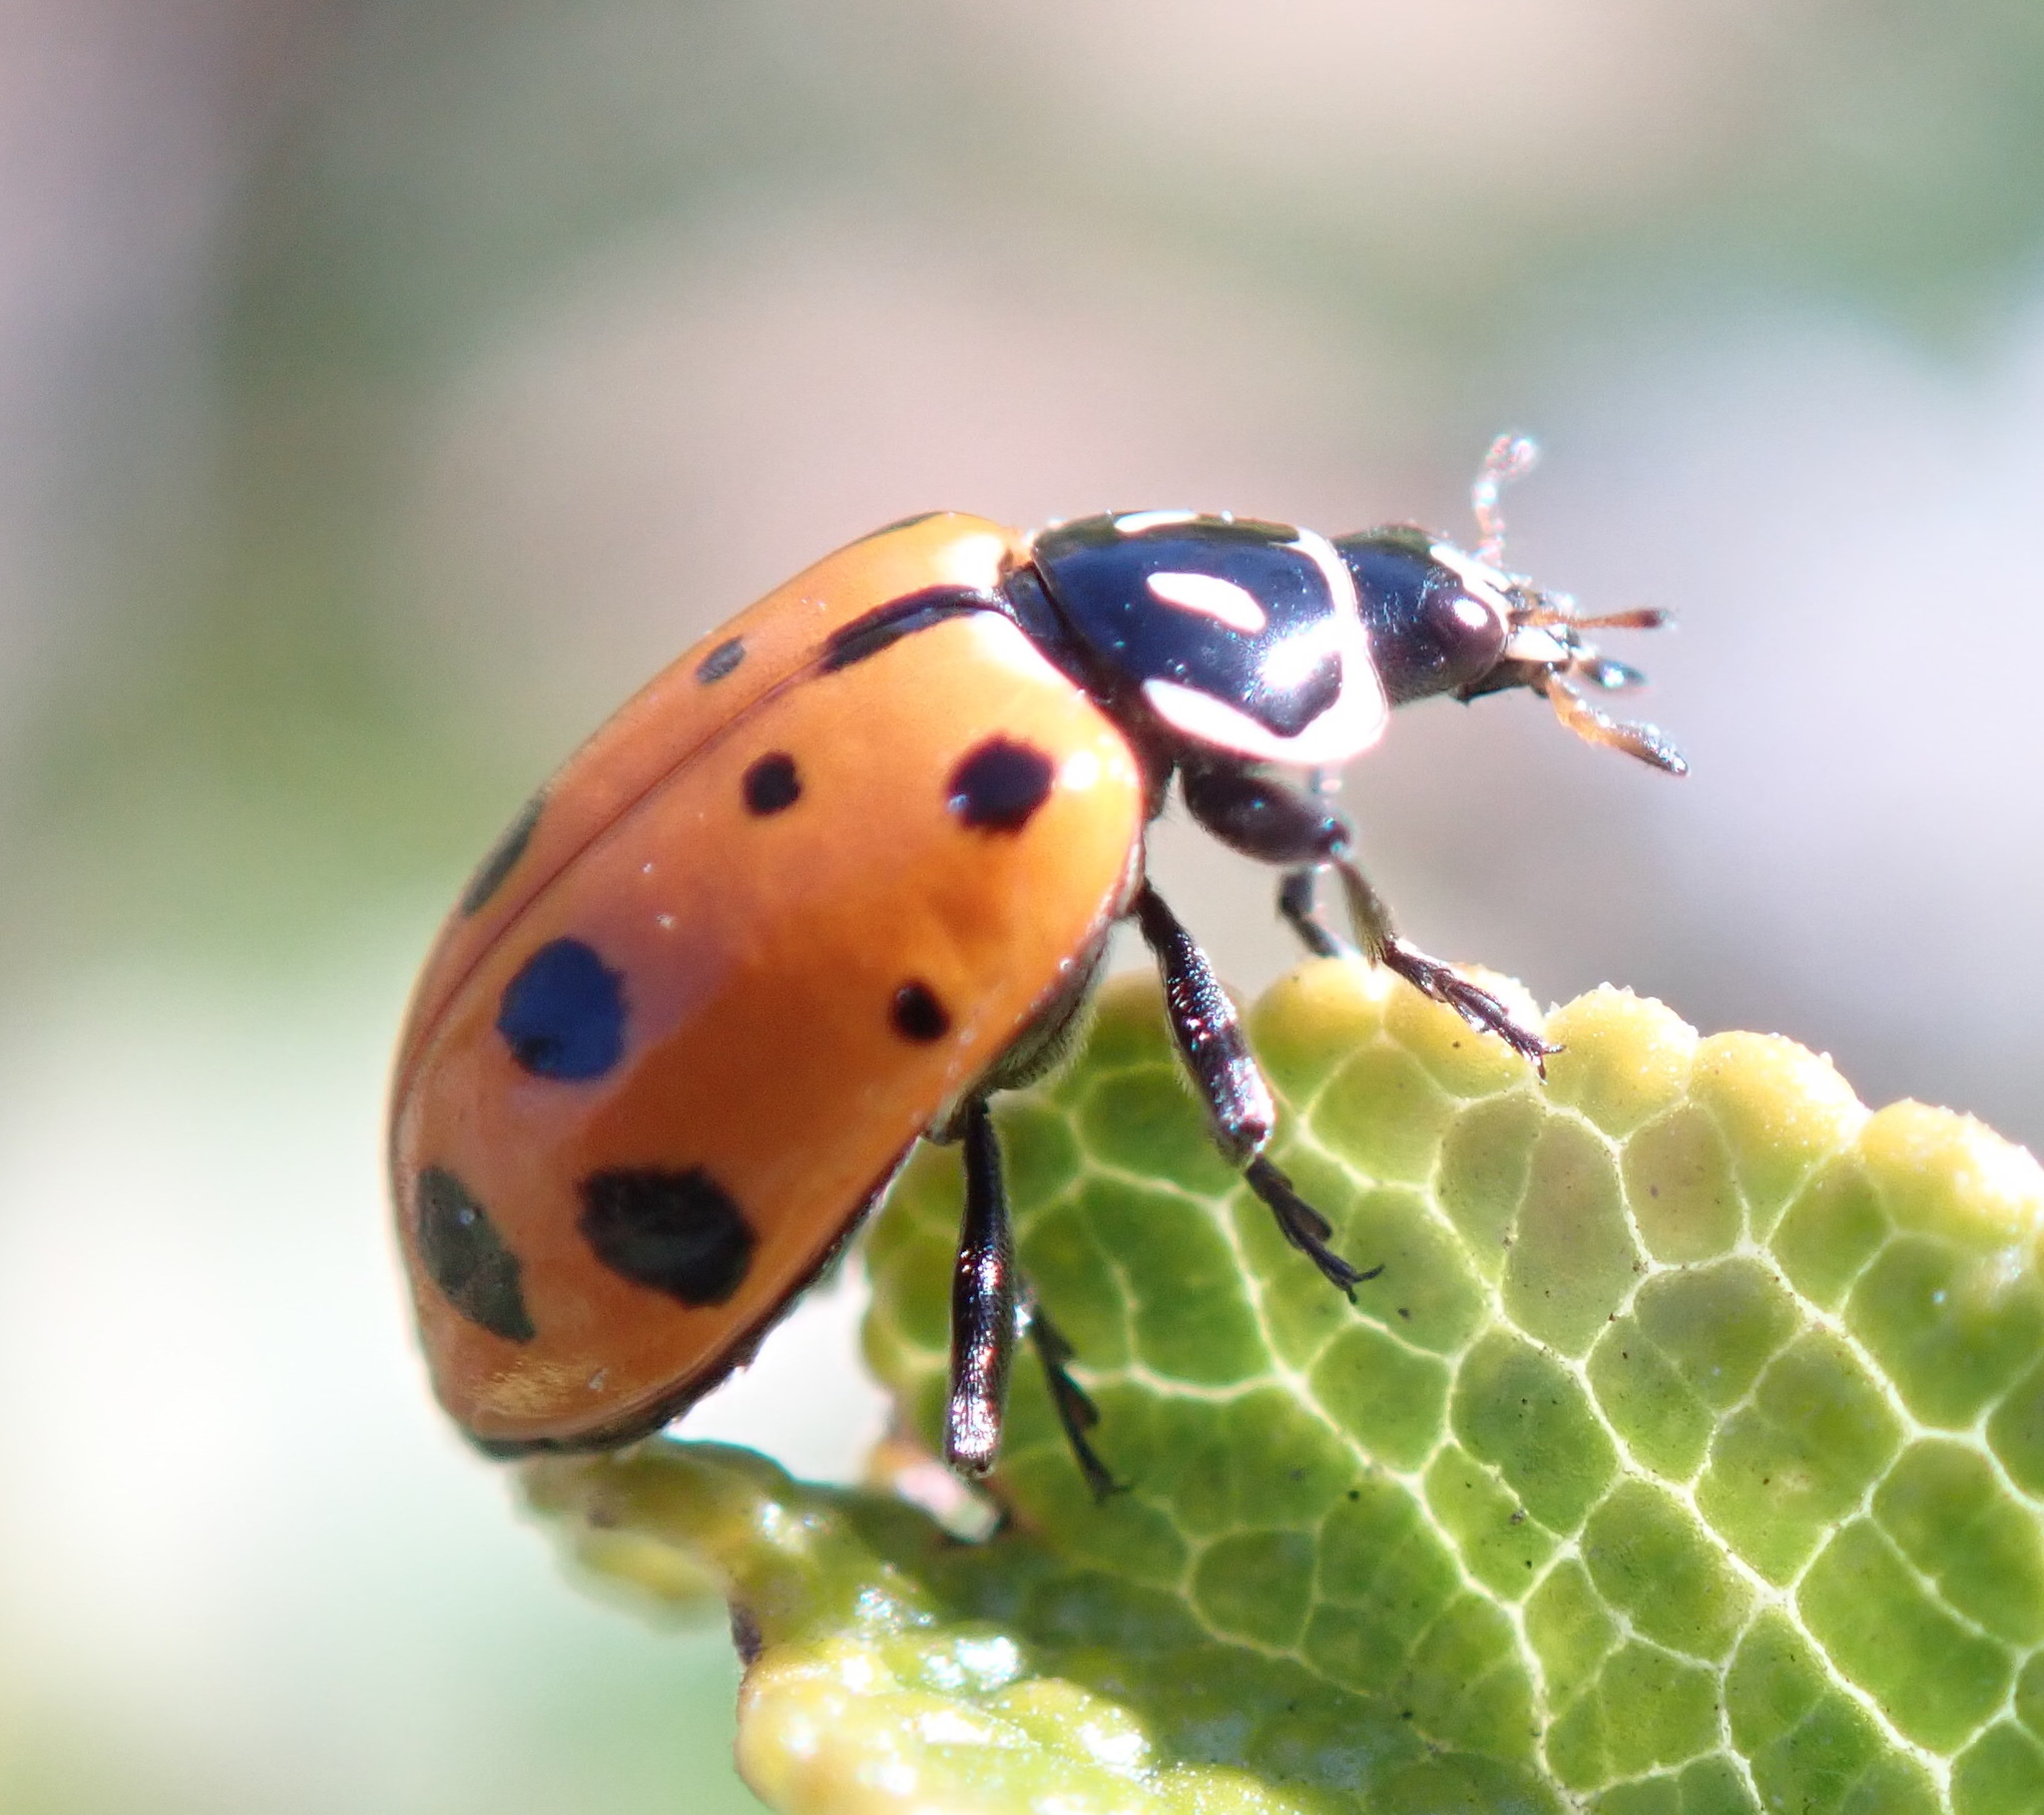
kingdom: Animalia
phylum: Arthropoda
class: Insecta
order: Coleoptera
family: Coccinellidae
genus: Hippodamia
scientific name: Hippodamia convergens
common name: Convergent lady beetle
